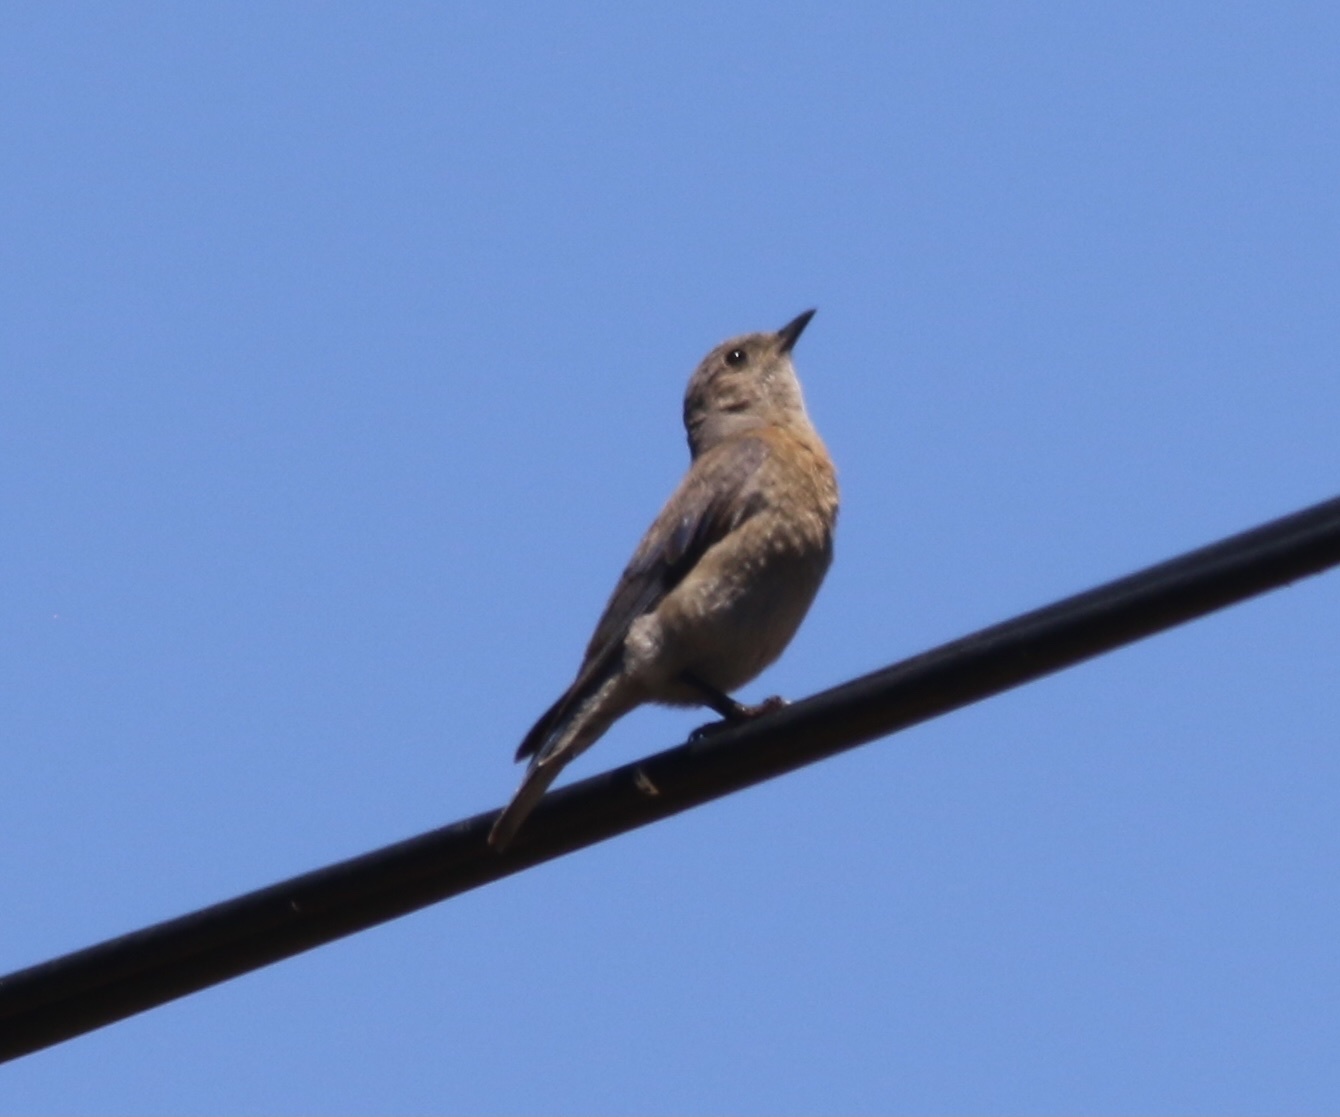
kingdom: Animalia
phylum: Chordata
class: Aves
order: Passeriformes
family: Turdidae
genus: Sialia
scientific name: Sialia mexicana
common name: Western bluebird
